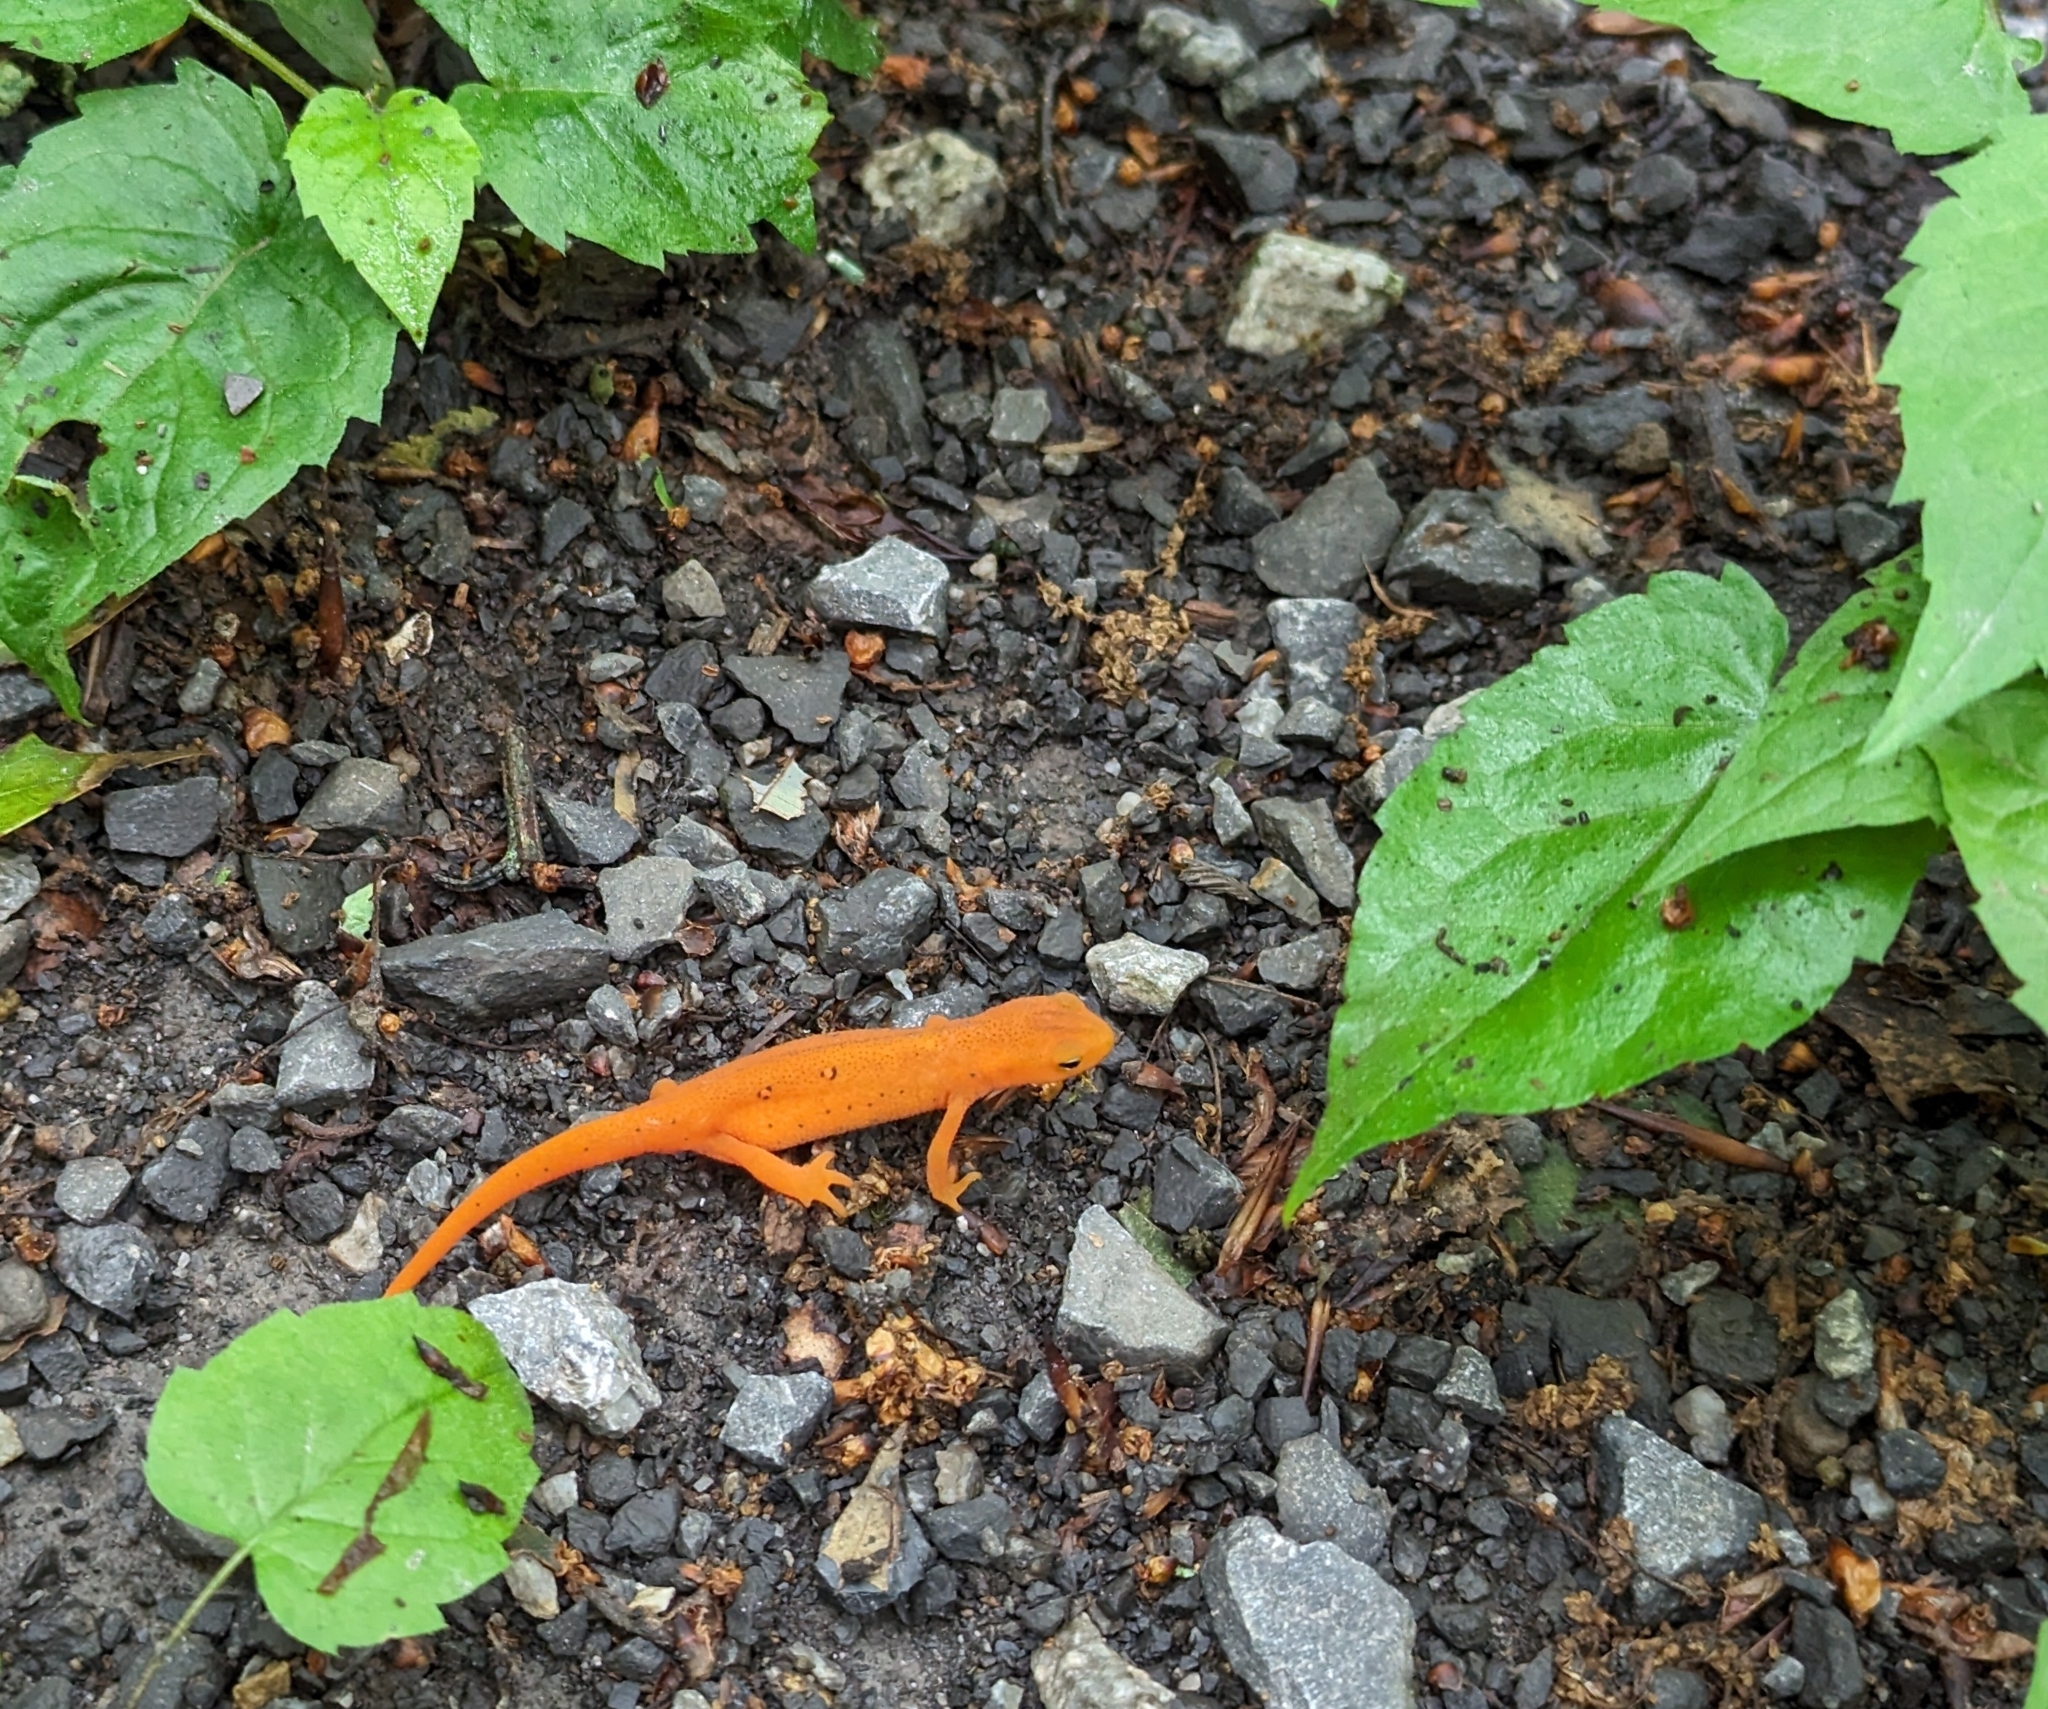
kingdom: Animalia
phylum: Chordata
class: Amphibia
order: Caudata
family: Salamandridae
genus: Notophthalmus
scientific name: Notophthalmus viridescens
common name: Eastern newt
